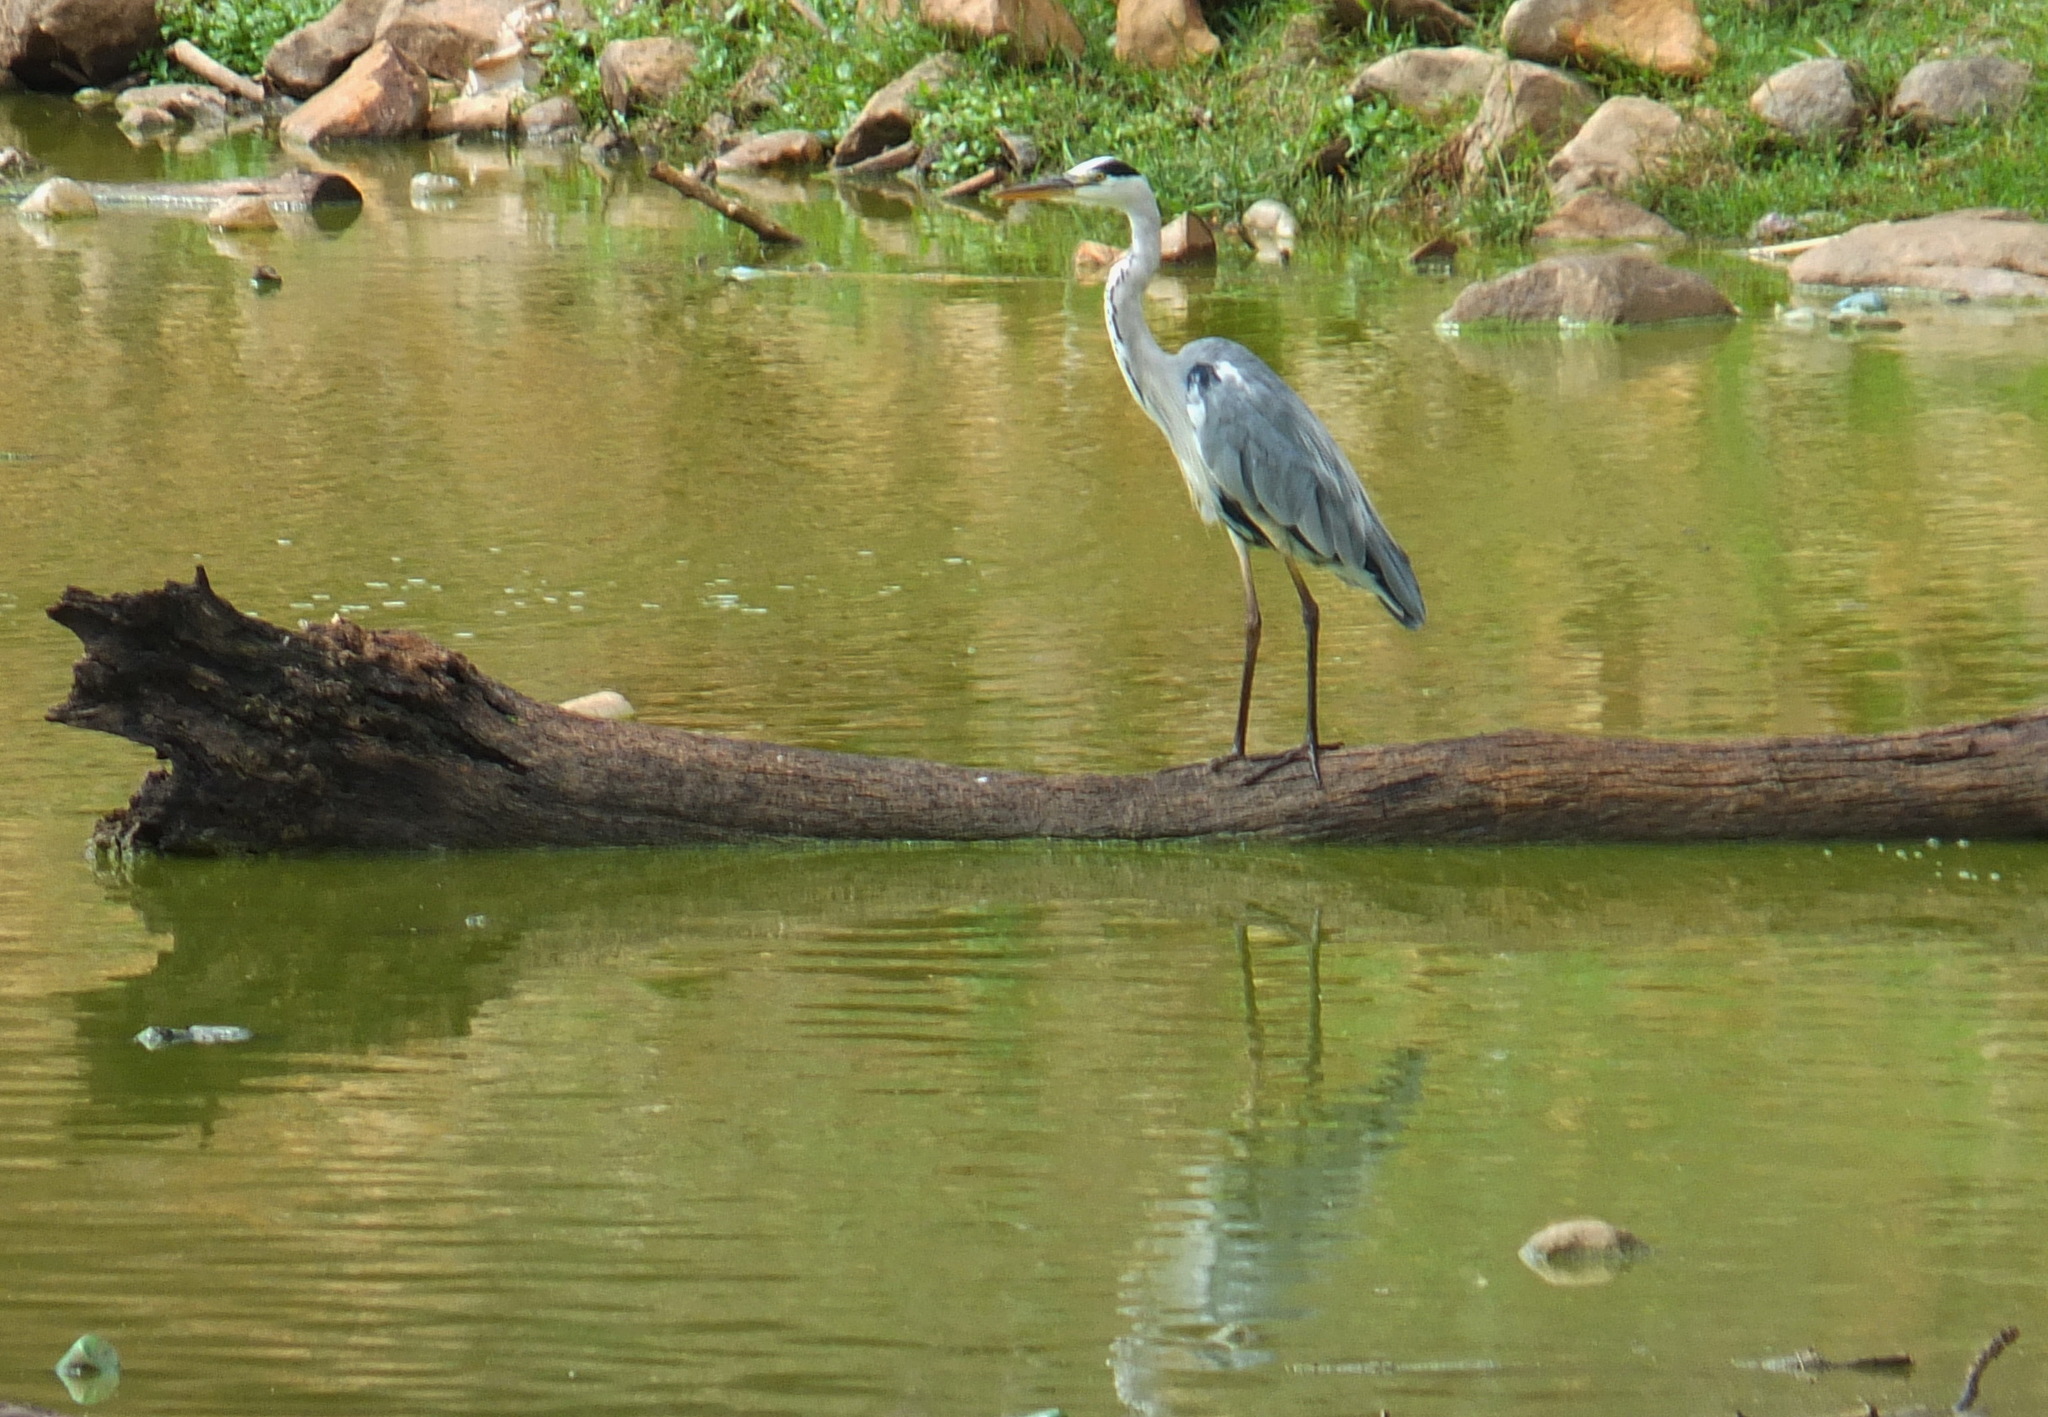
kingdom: Animalia
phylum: Chordata
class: Aves
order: Pelecaniformes
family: Ardeidae
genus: Ardea
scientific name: Ardea cinerea
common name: Grey heron
